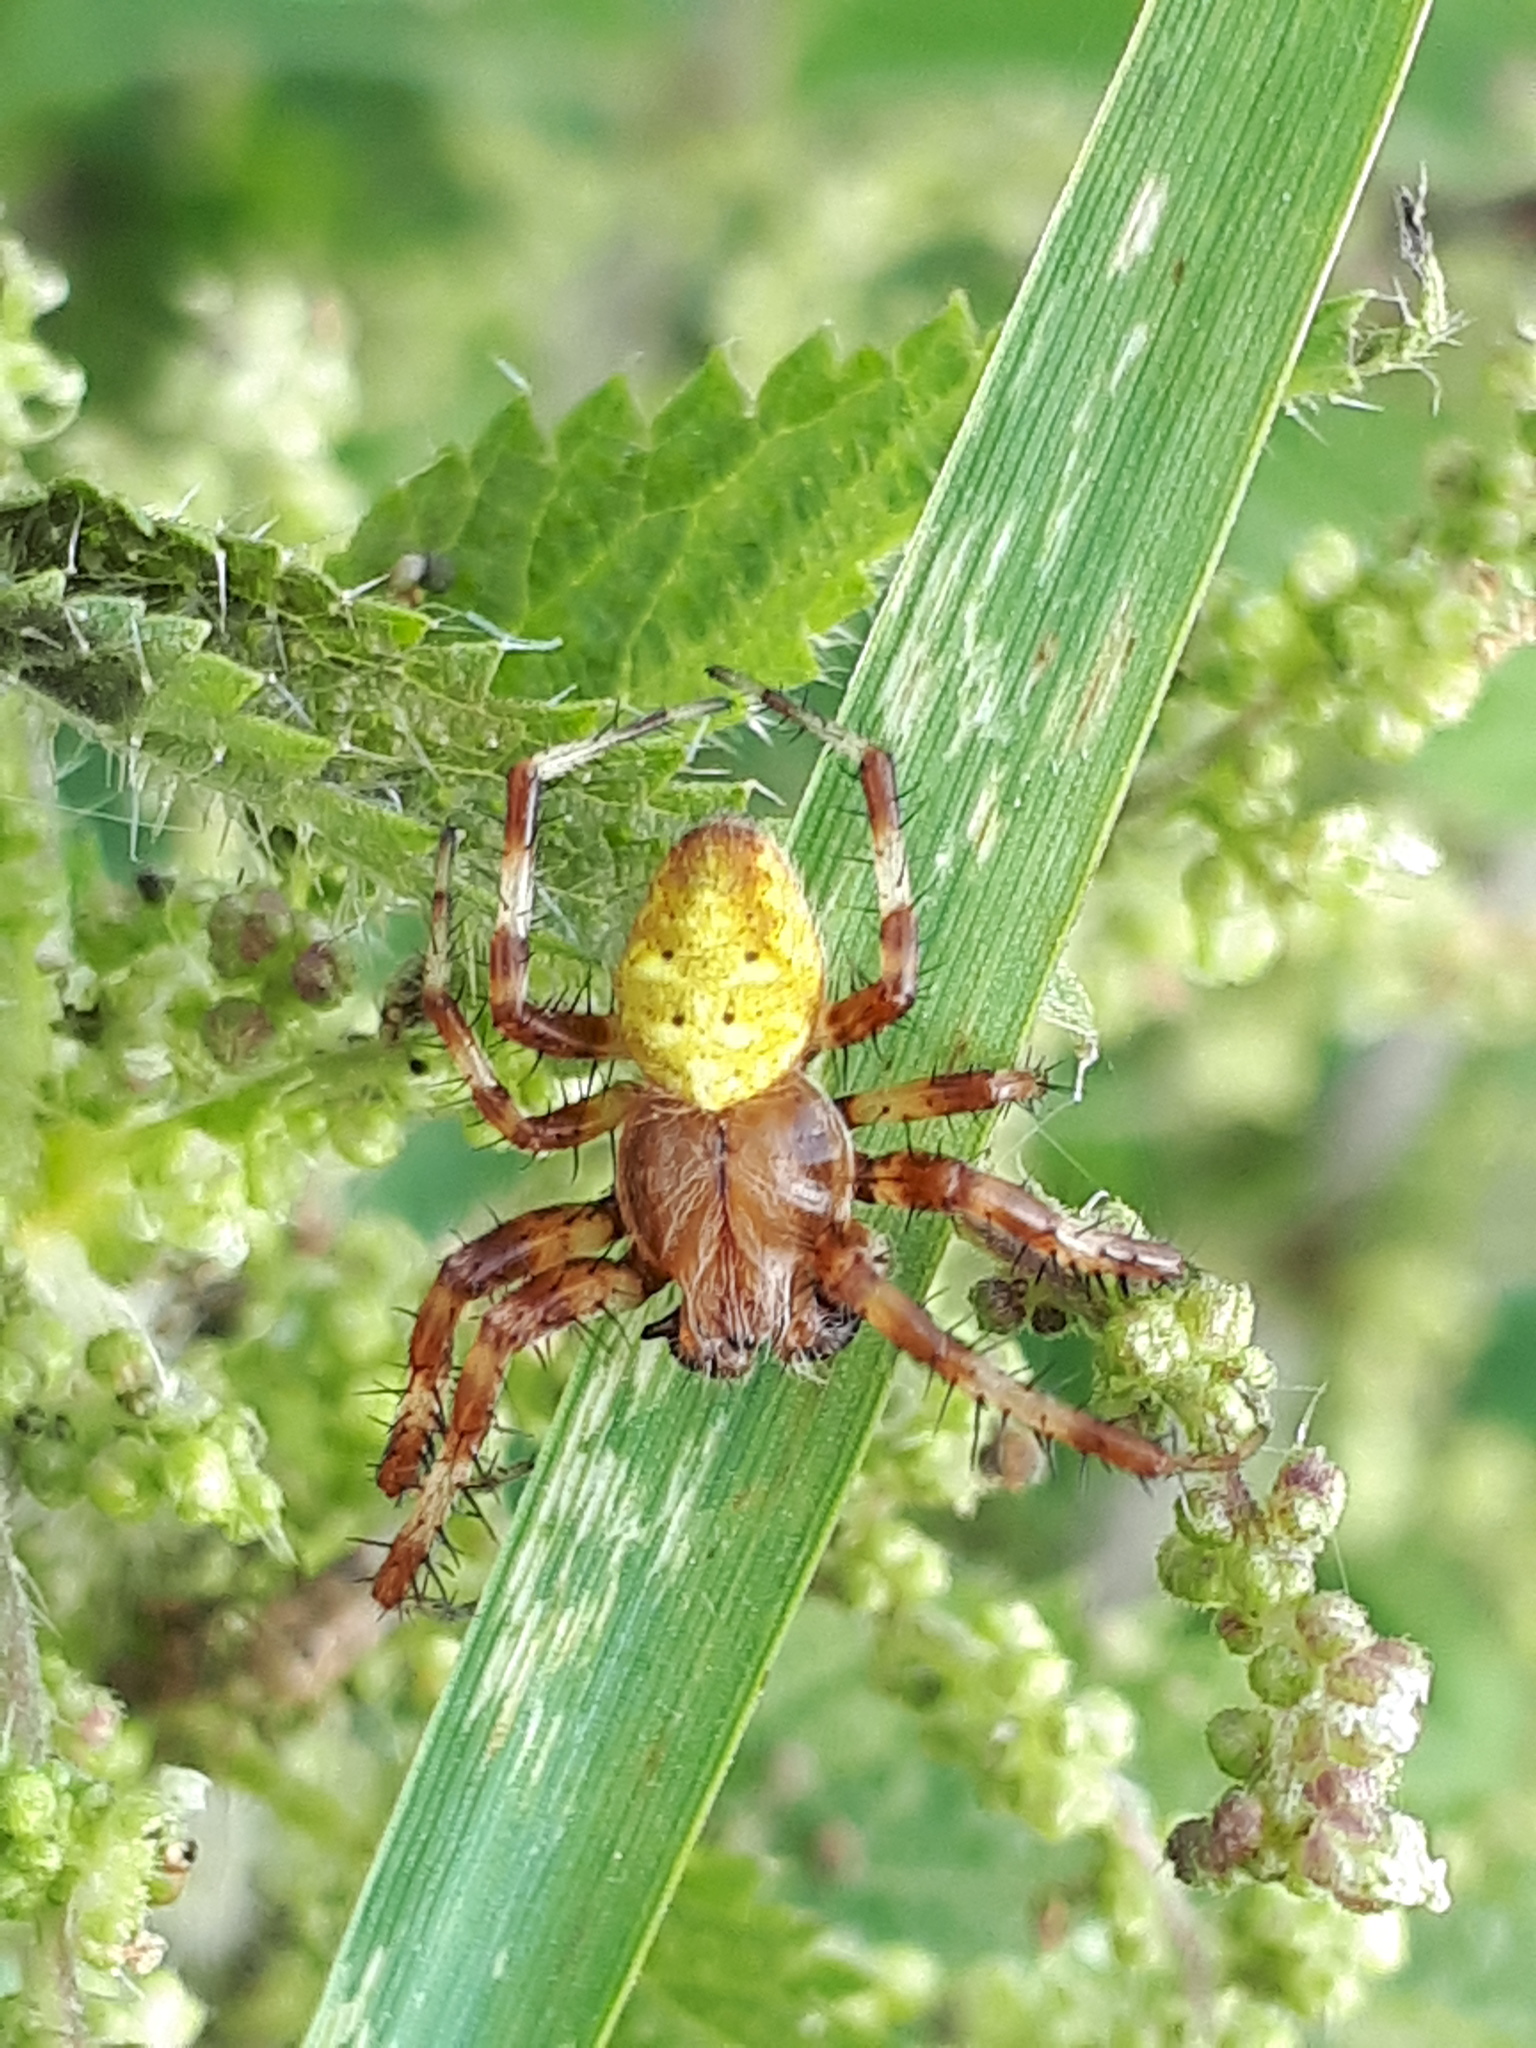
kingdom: Animalia
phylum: Arthropoda
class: Arachnida
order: Araneae
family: Araneidae
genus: Araneus
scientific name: Araneus quadratus
